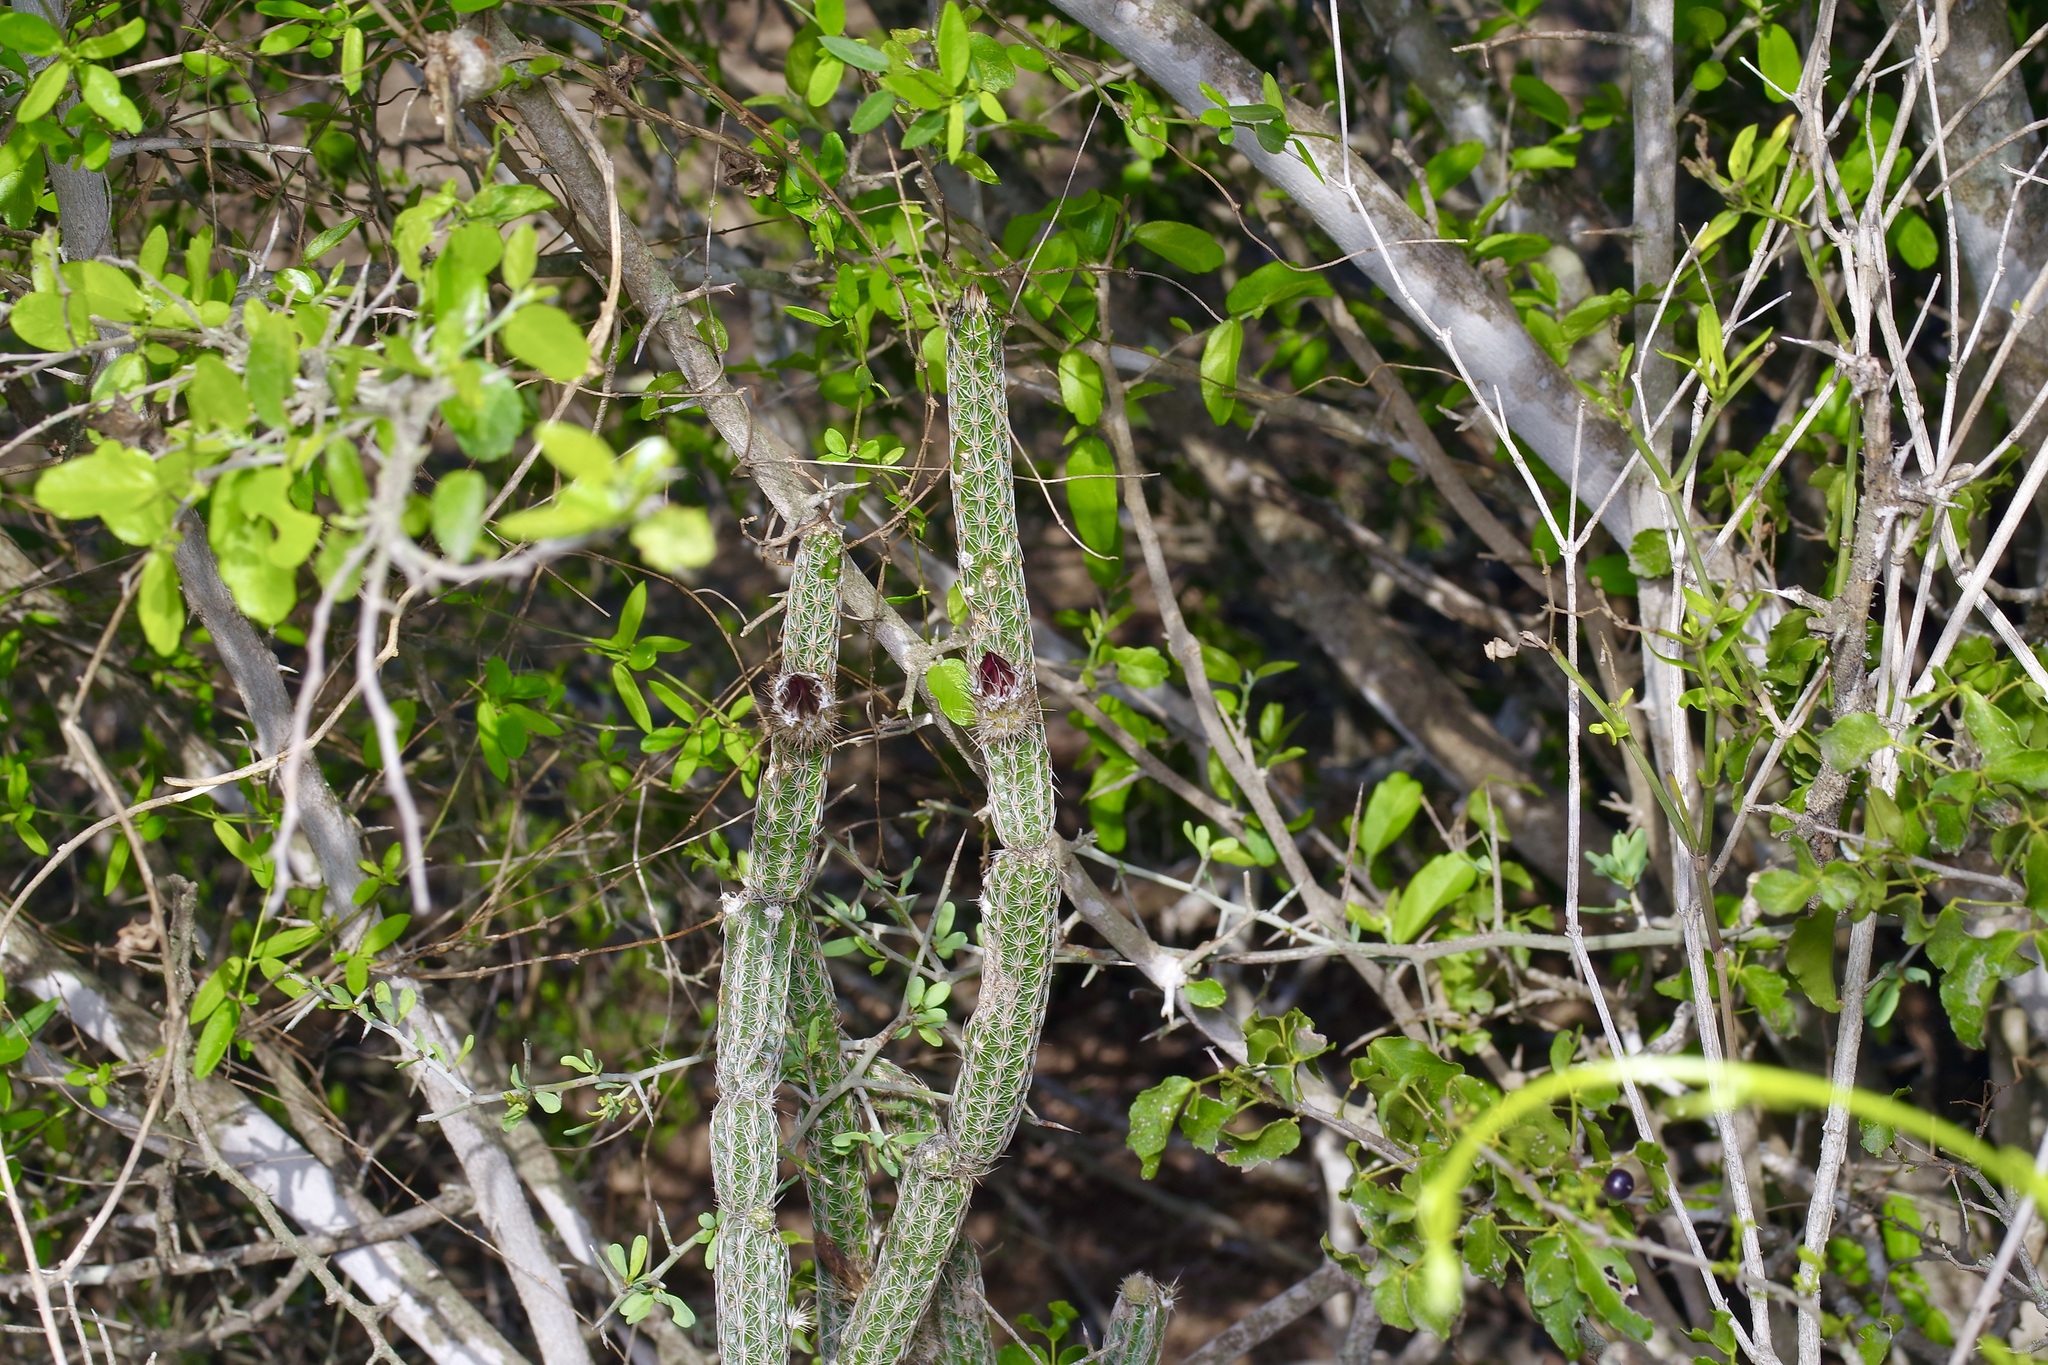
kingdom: Plantae
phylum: Tracheophyta
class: Magnoliopsida
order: Caryophyllales
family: Cactaceae
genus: Echinocereus
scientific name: Echinocereus poselgeri
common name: Dahlia apple cactus
